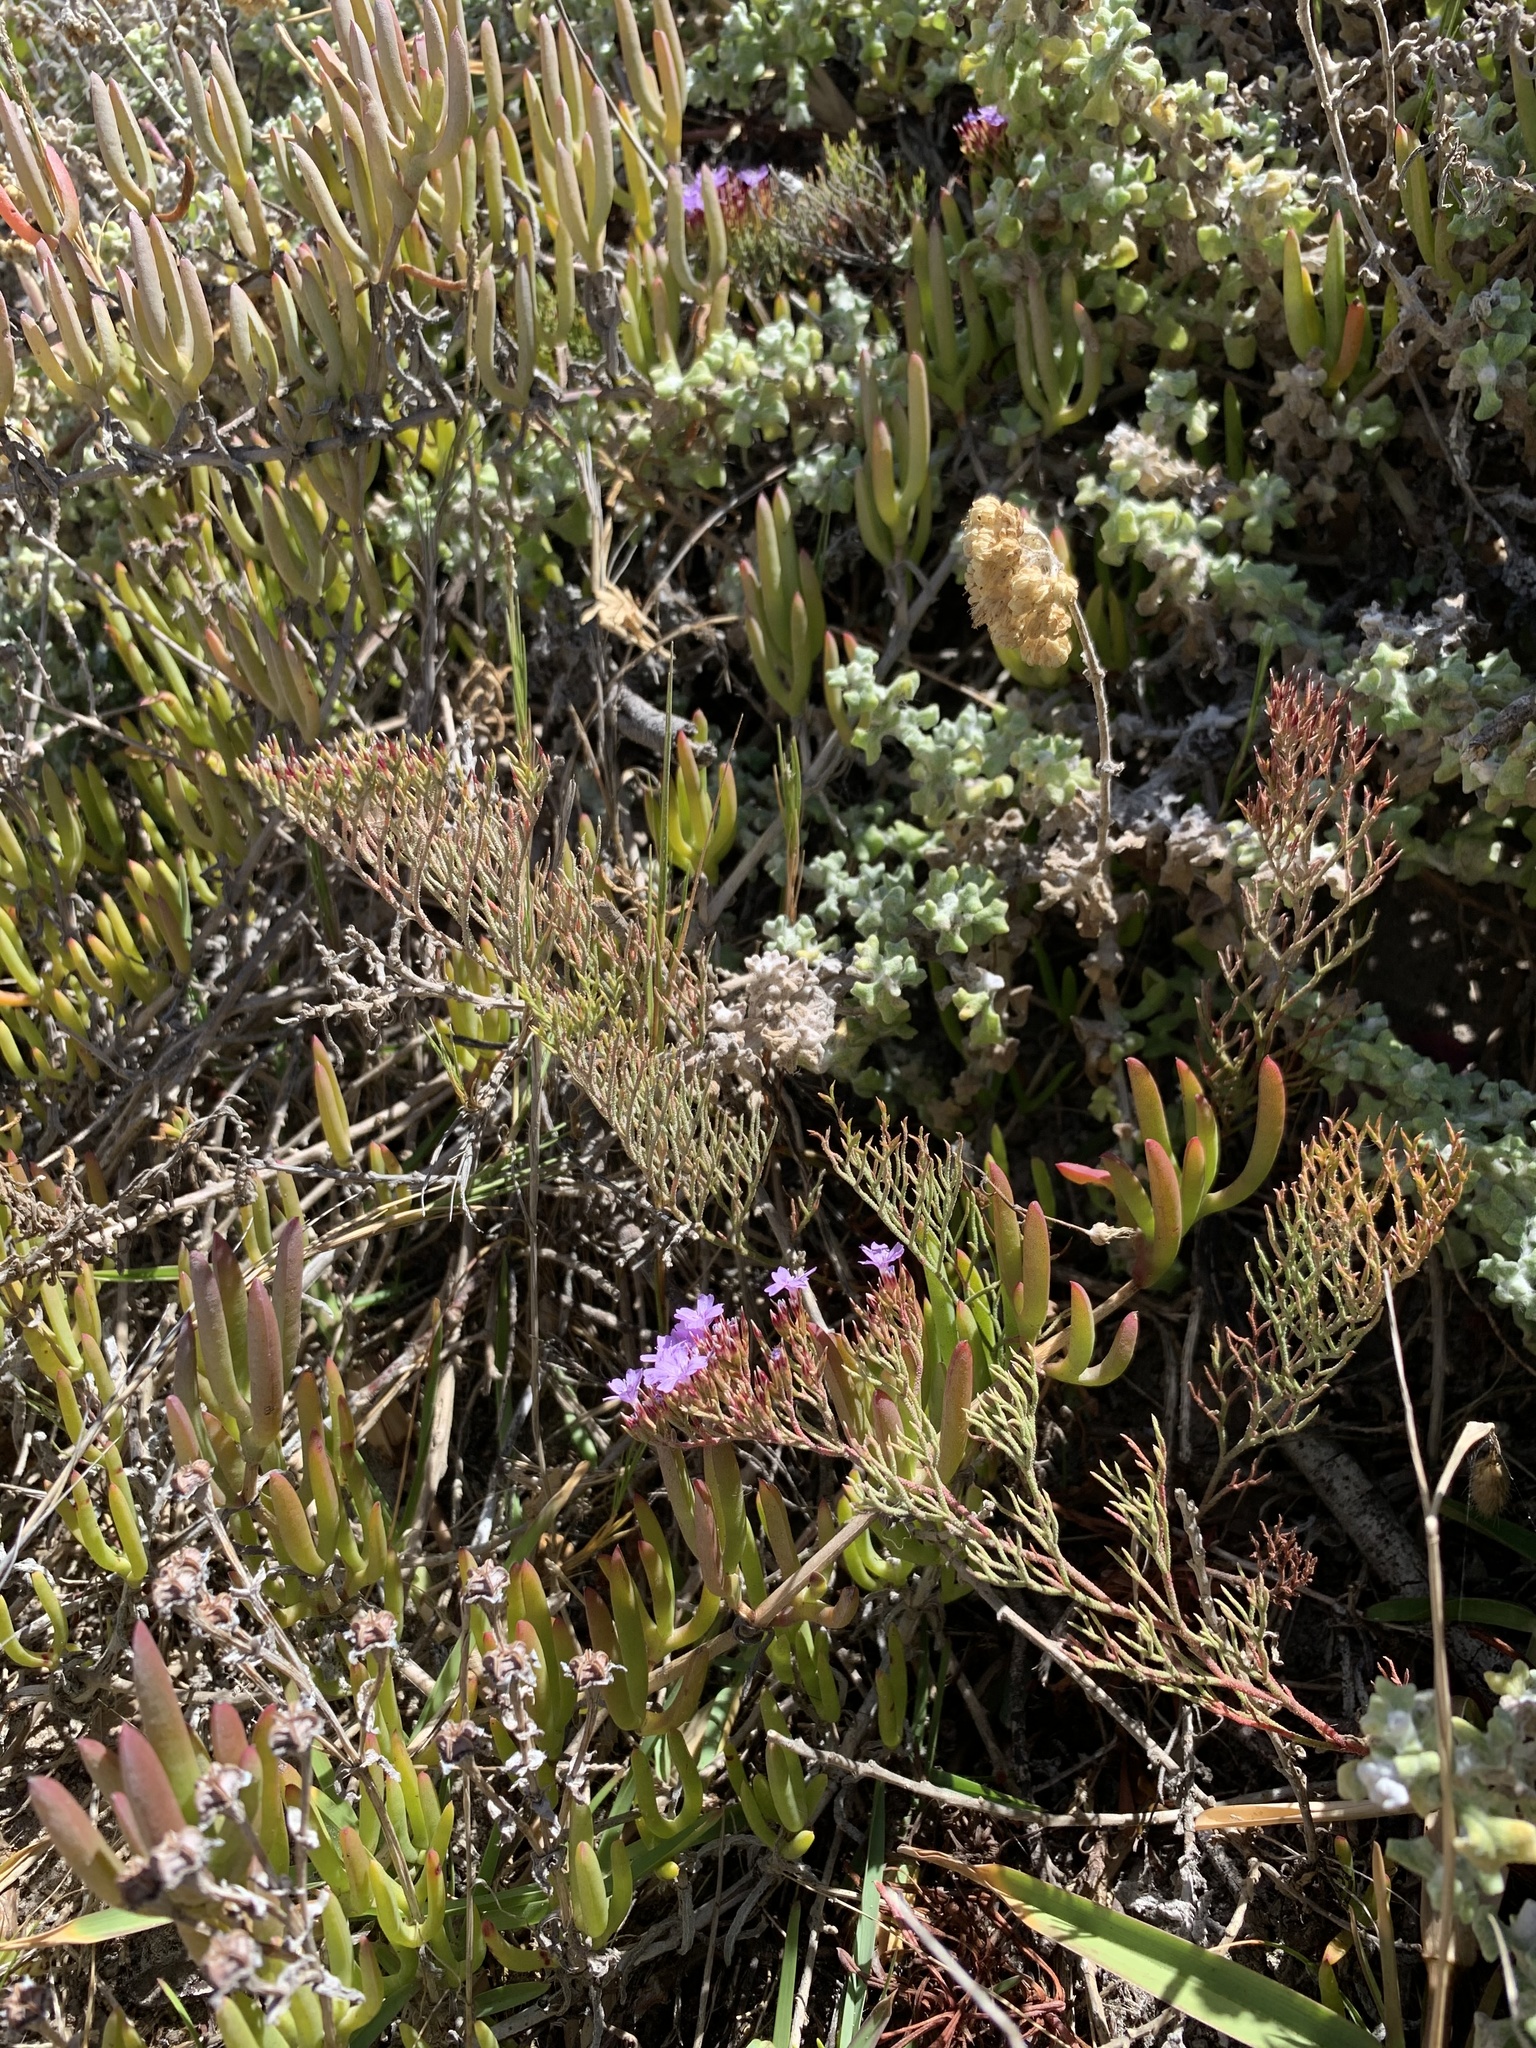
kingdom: Plantae
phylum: Tracheophyta
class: Magnoliopsida
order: Caryophyllales
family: Plumbaginaceae
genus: Limonium
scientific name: Limonium scabrum
